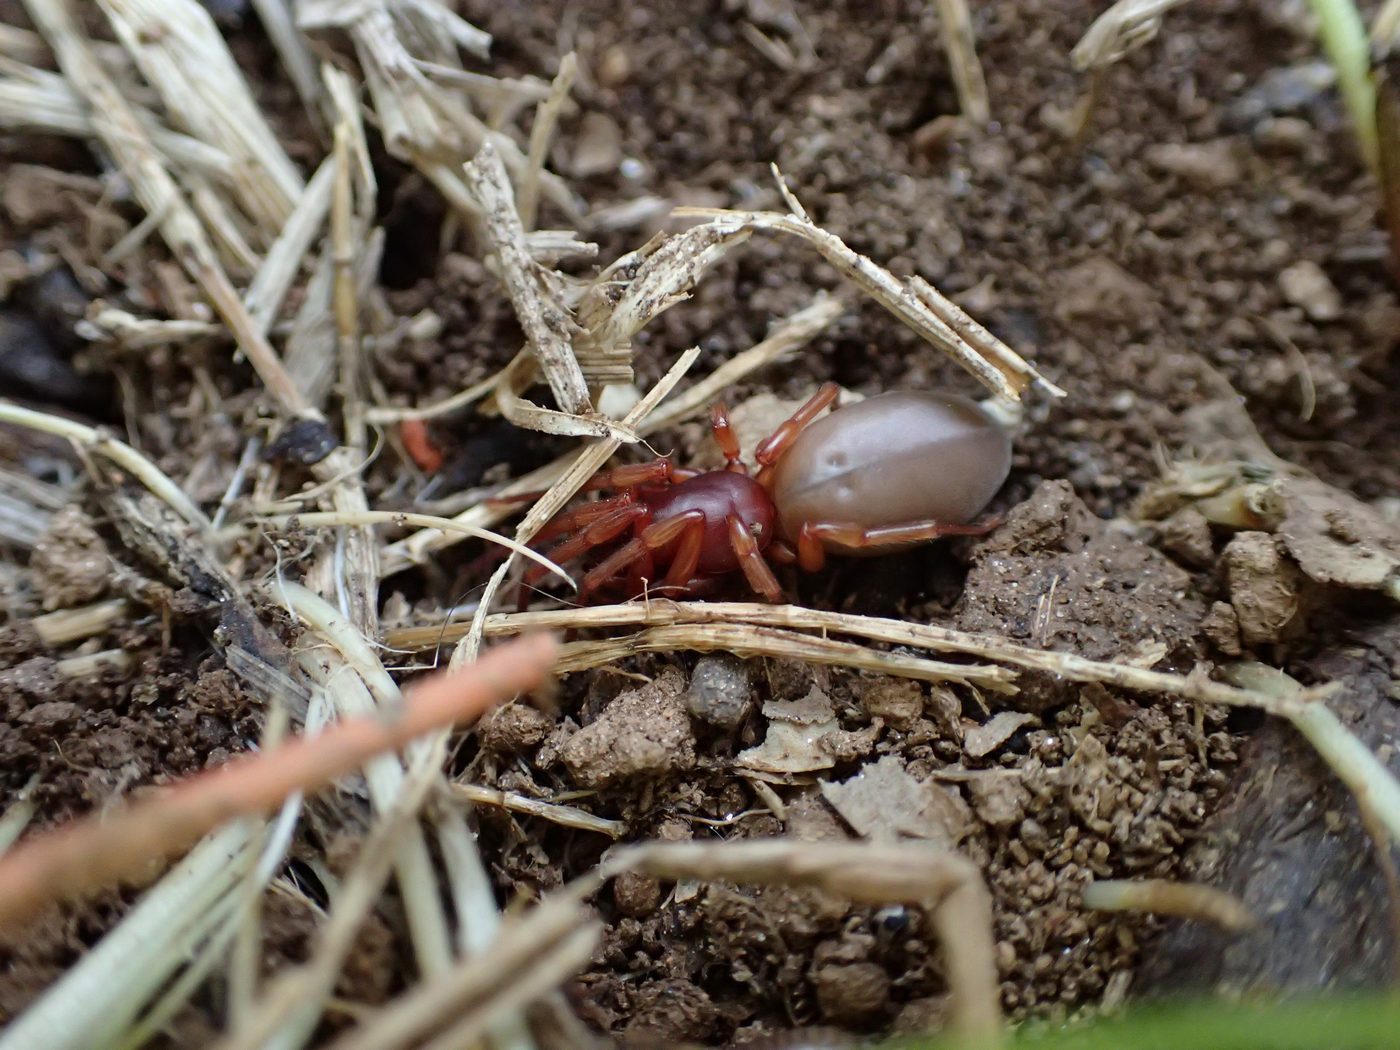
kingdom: Animalia
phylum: Arthropoda
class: Arachnida
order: Araneae
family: Dysderidae
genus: Dysdera
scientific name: Dysdera crocata
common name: Woodlouse spider
